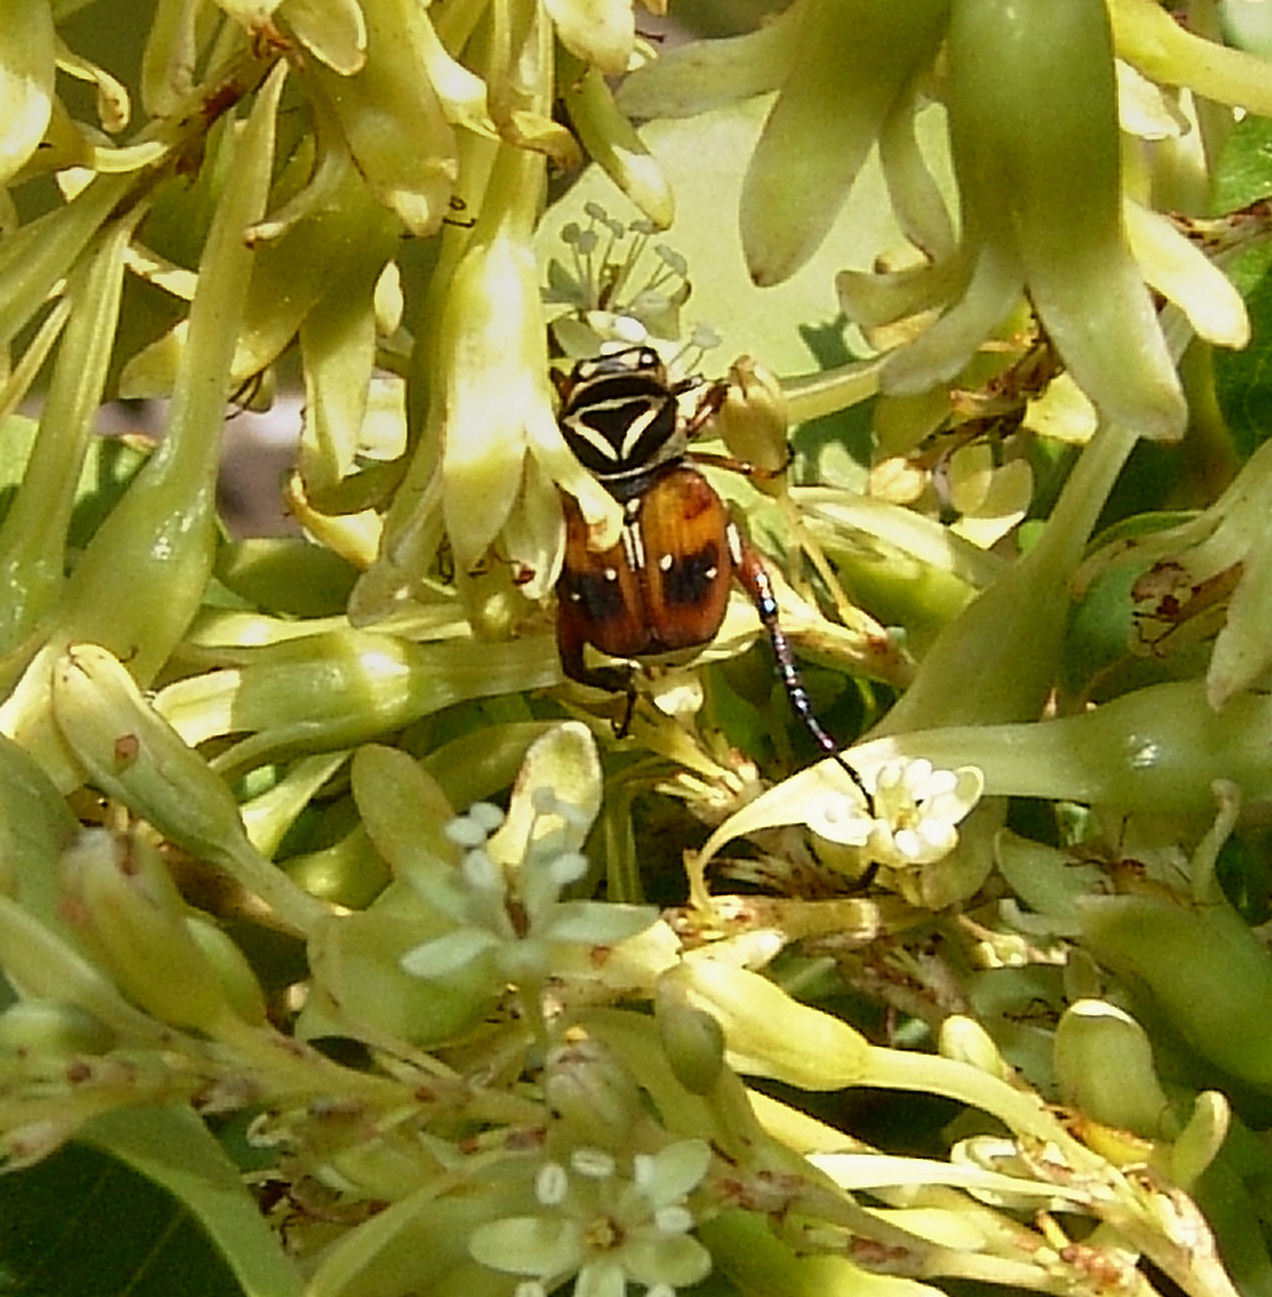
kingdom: Animalia
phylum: Arthropoda
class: Insecta
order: Coleoptera
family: Scarabaeidae
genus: Trigonopeltastes
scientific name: Trigonopeltastes delta
